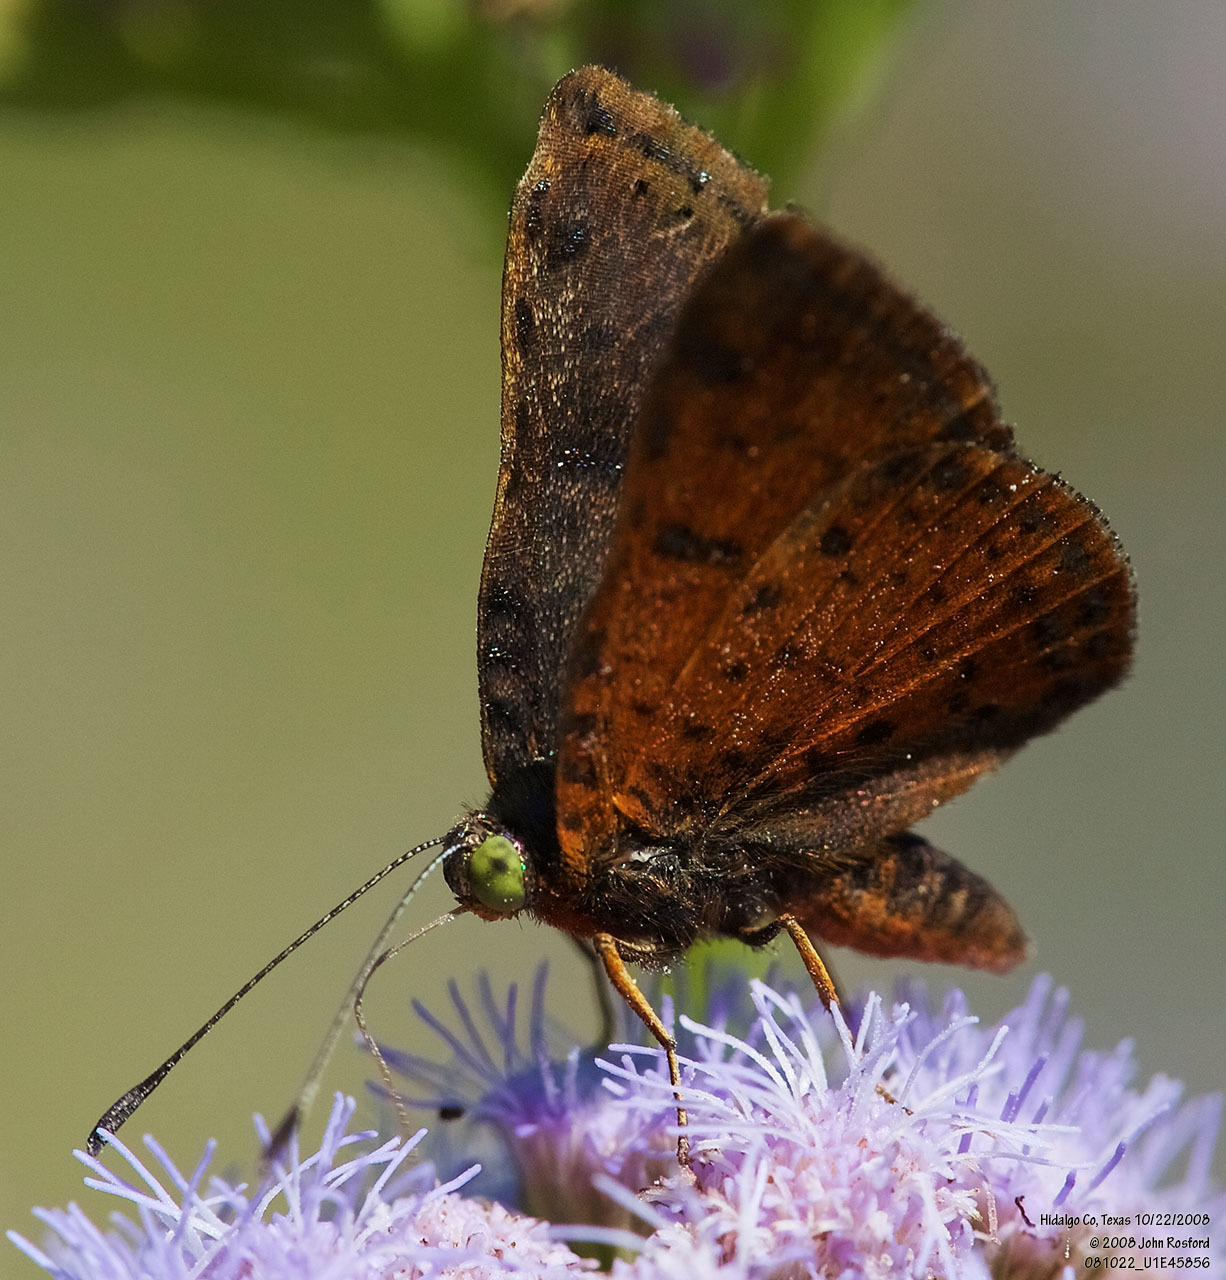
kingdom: Animalia
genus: Caria
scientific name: Caria ino
